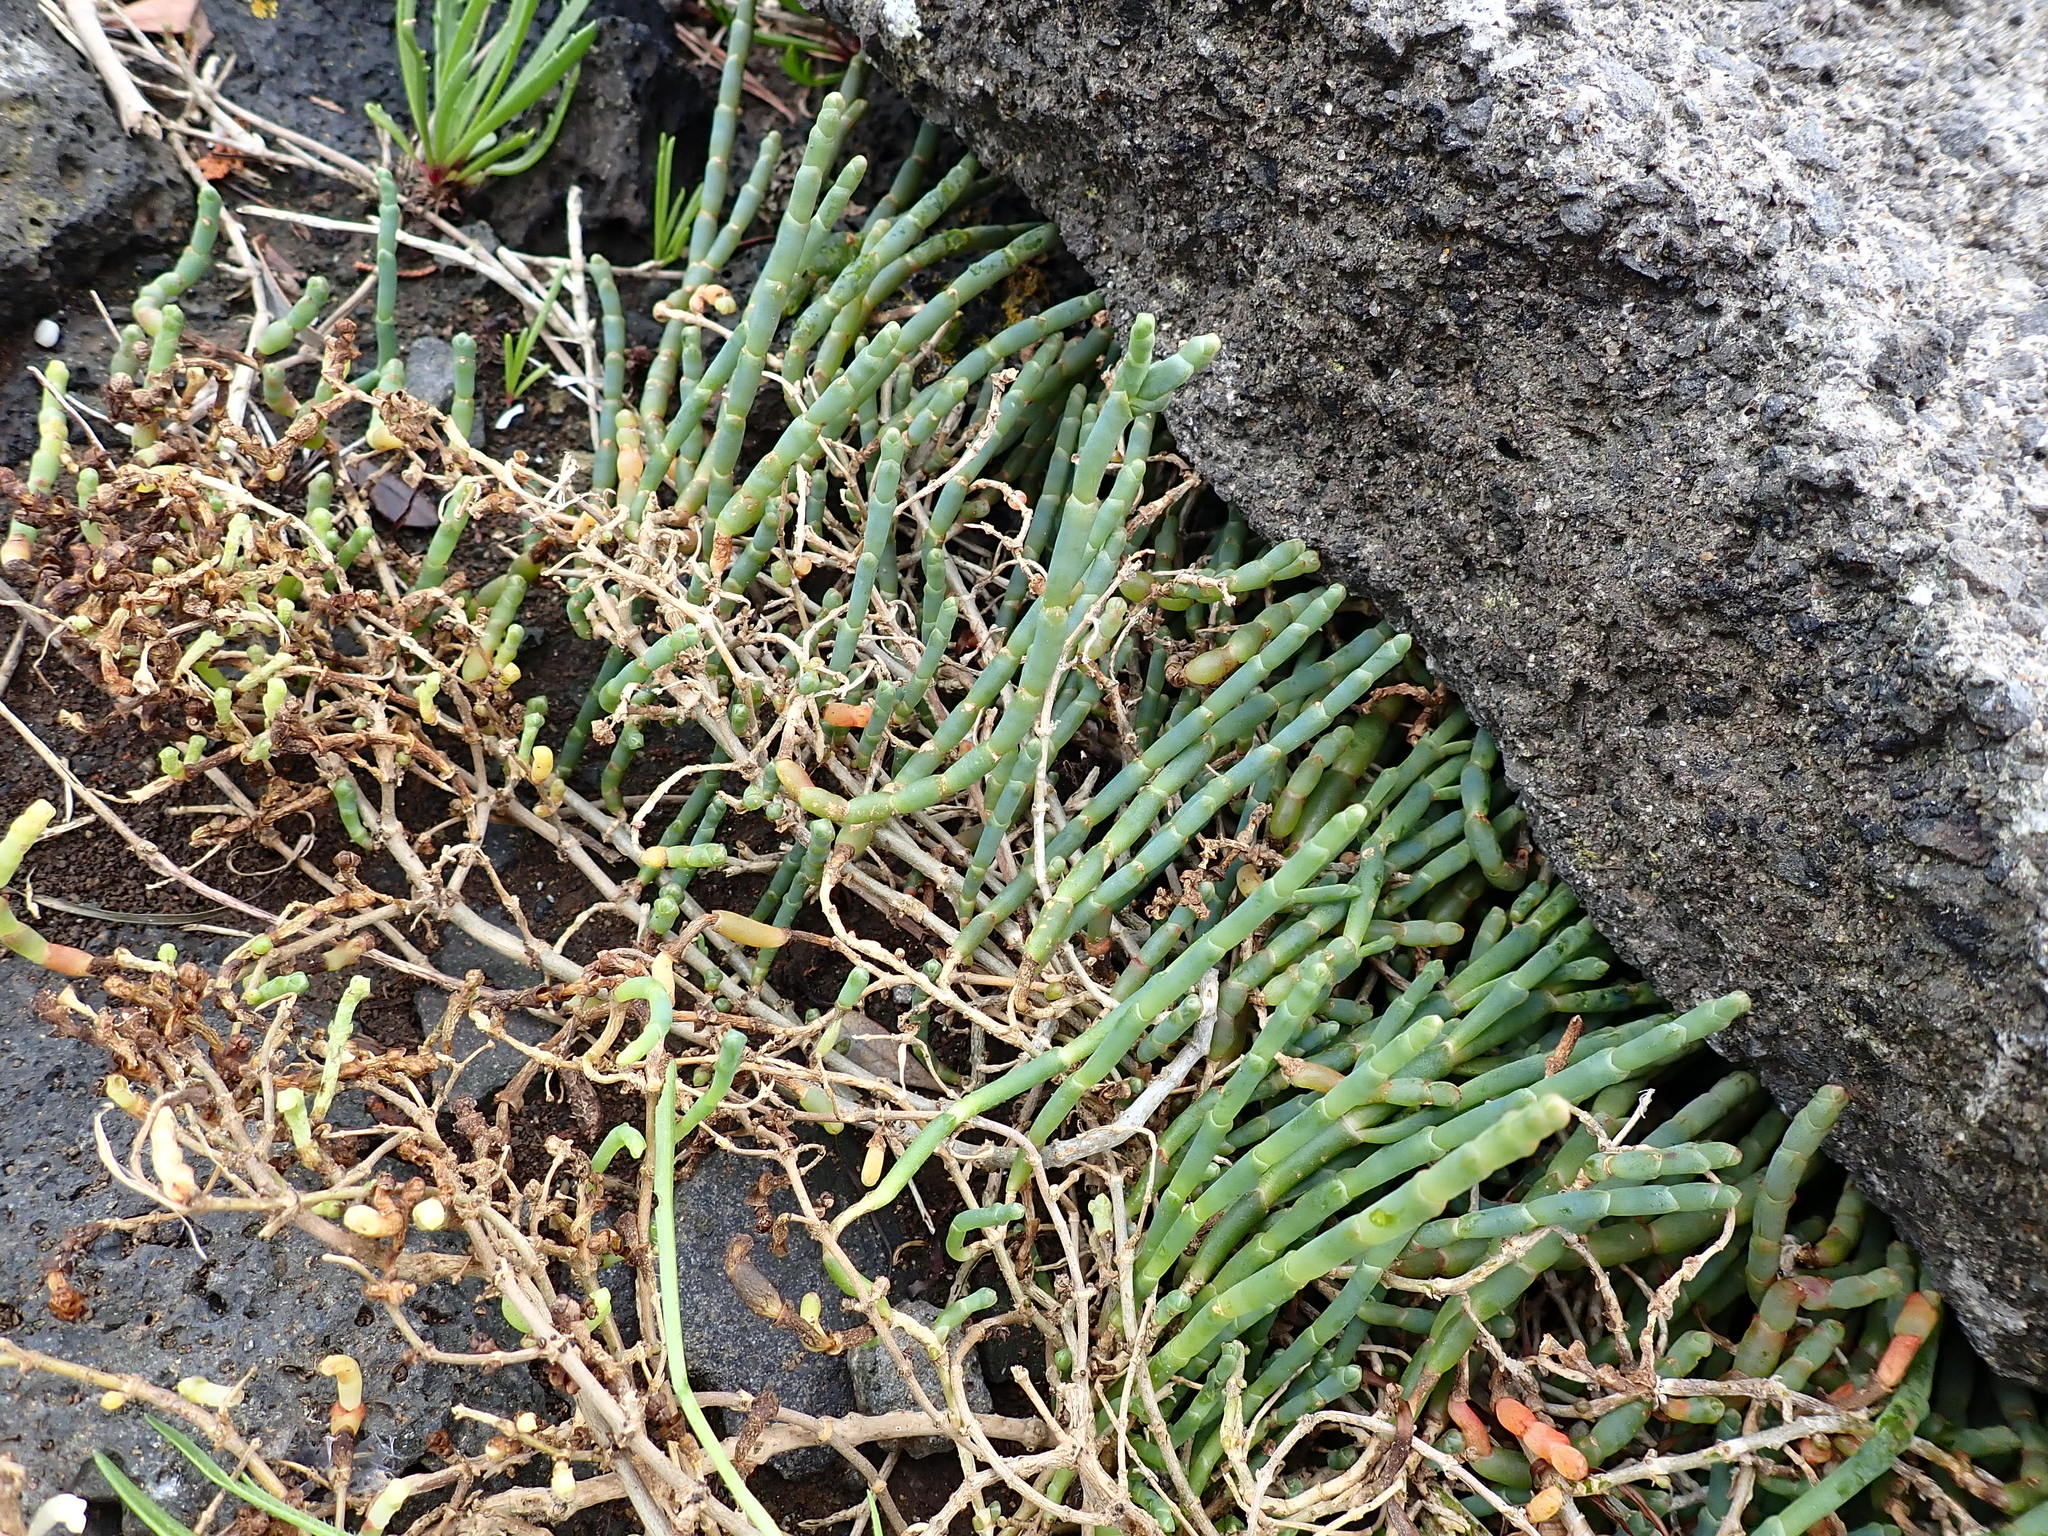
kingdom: Plantae
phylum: Tracheophyta
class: Magnoliopsida
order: Caryophyllales
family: Amaranthaceae
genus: Salicornia
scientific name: Salicornia quinqueflora
